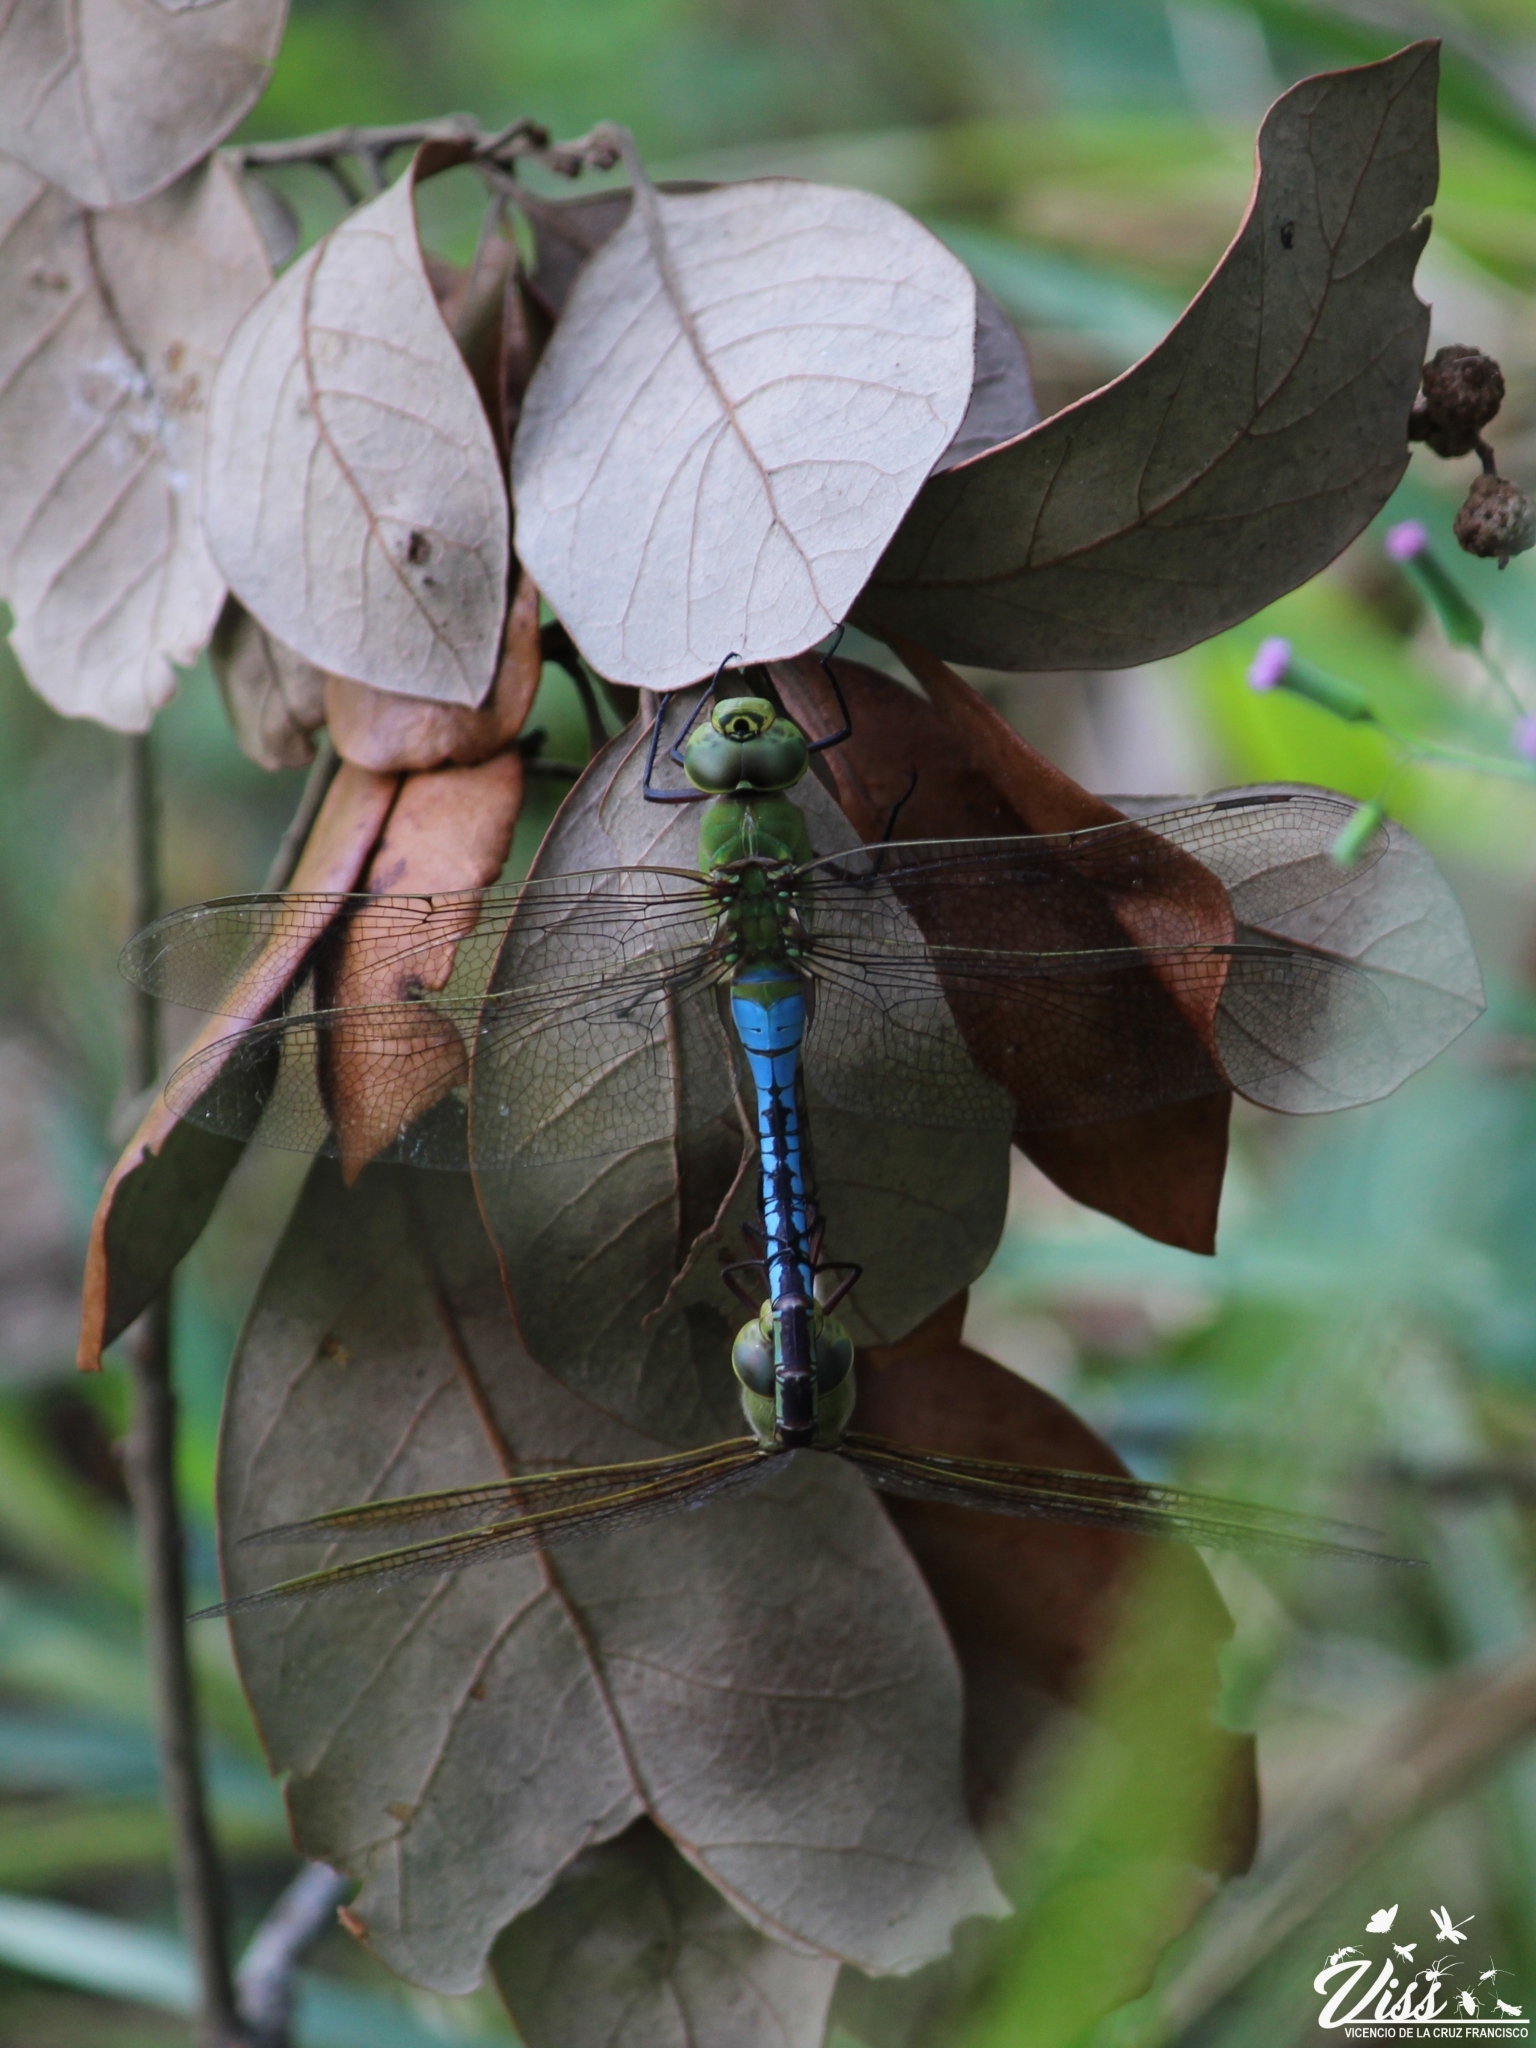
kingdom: Animalia
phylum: Arthropoda
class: Insecta
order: Odonata
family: Aeshnidae
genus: Anax
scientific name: Anax junius
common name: Common green darner
